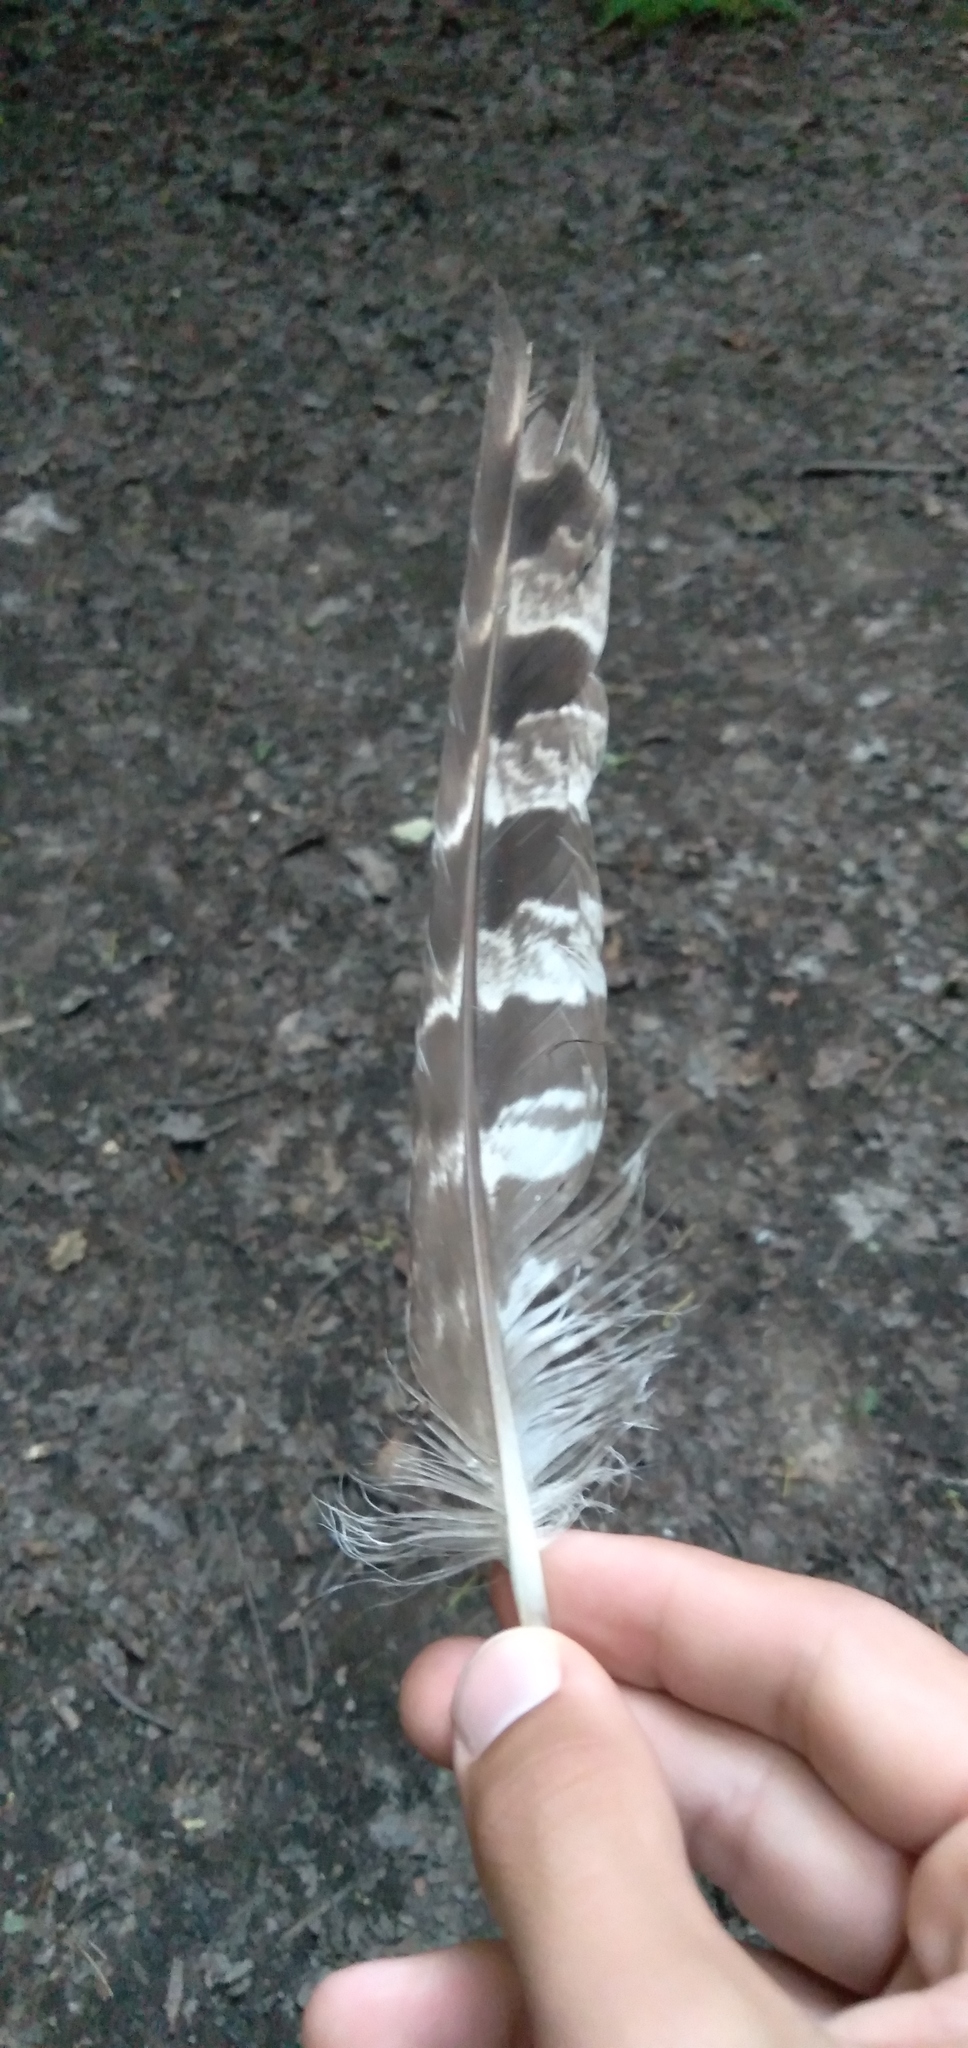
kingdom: Animalia
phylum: Chordata
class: Aves
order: Accipitriformes
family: Accipitridae
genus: Accipiter
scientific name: Accipiter gentilis
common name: Northern goshawk
